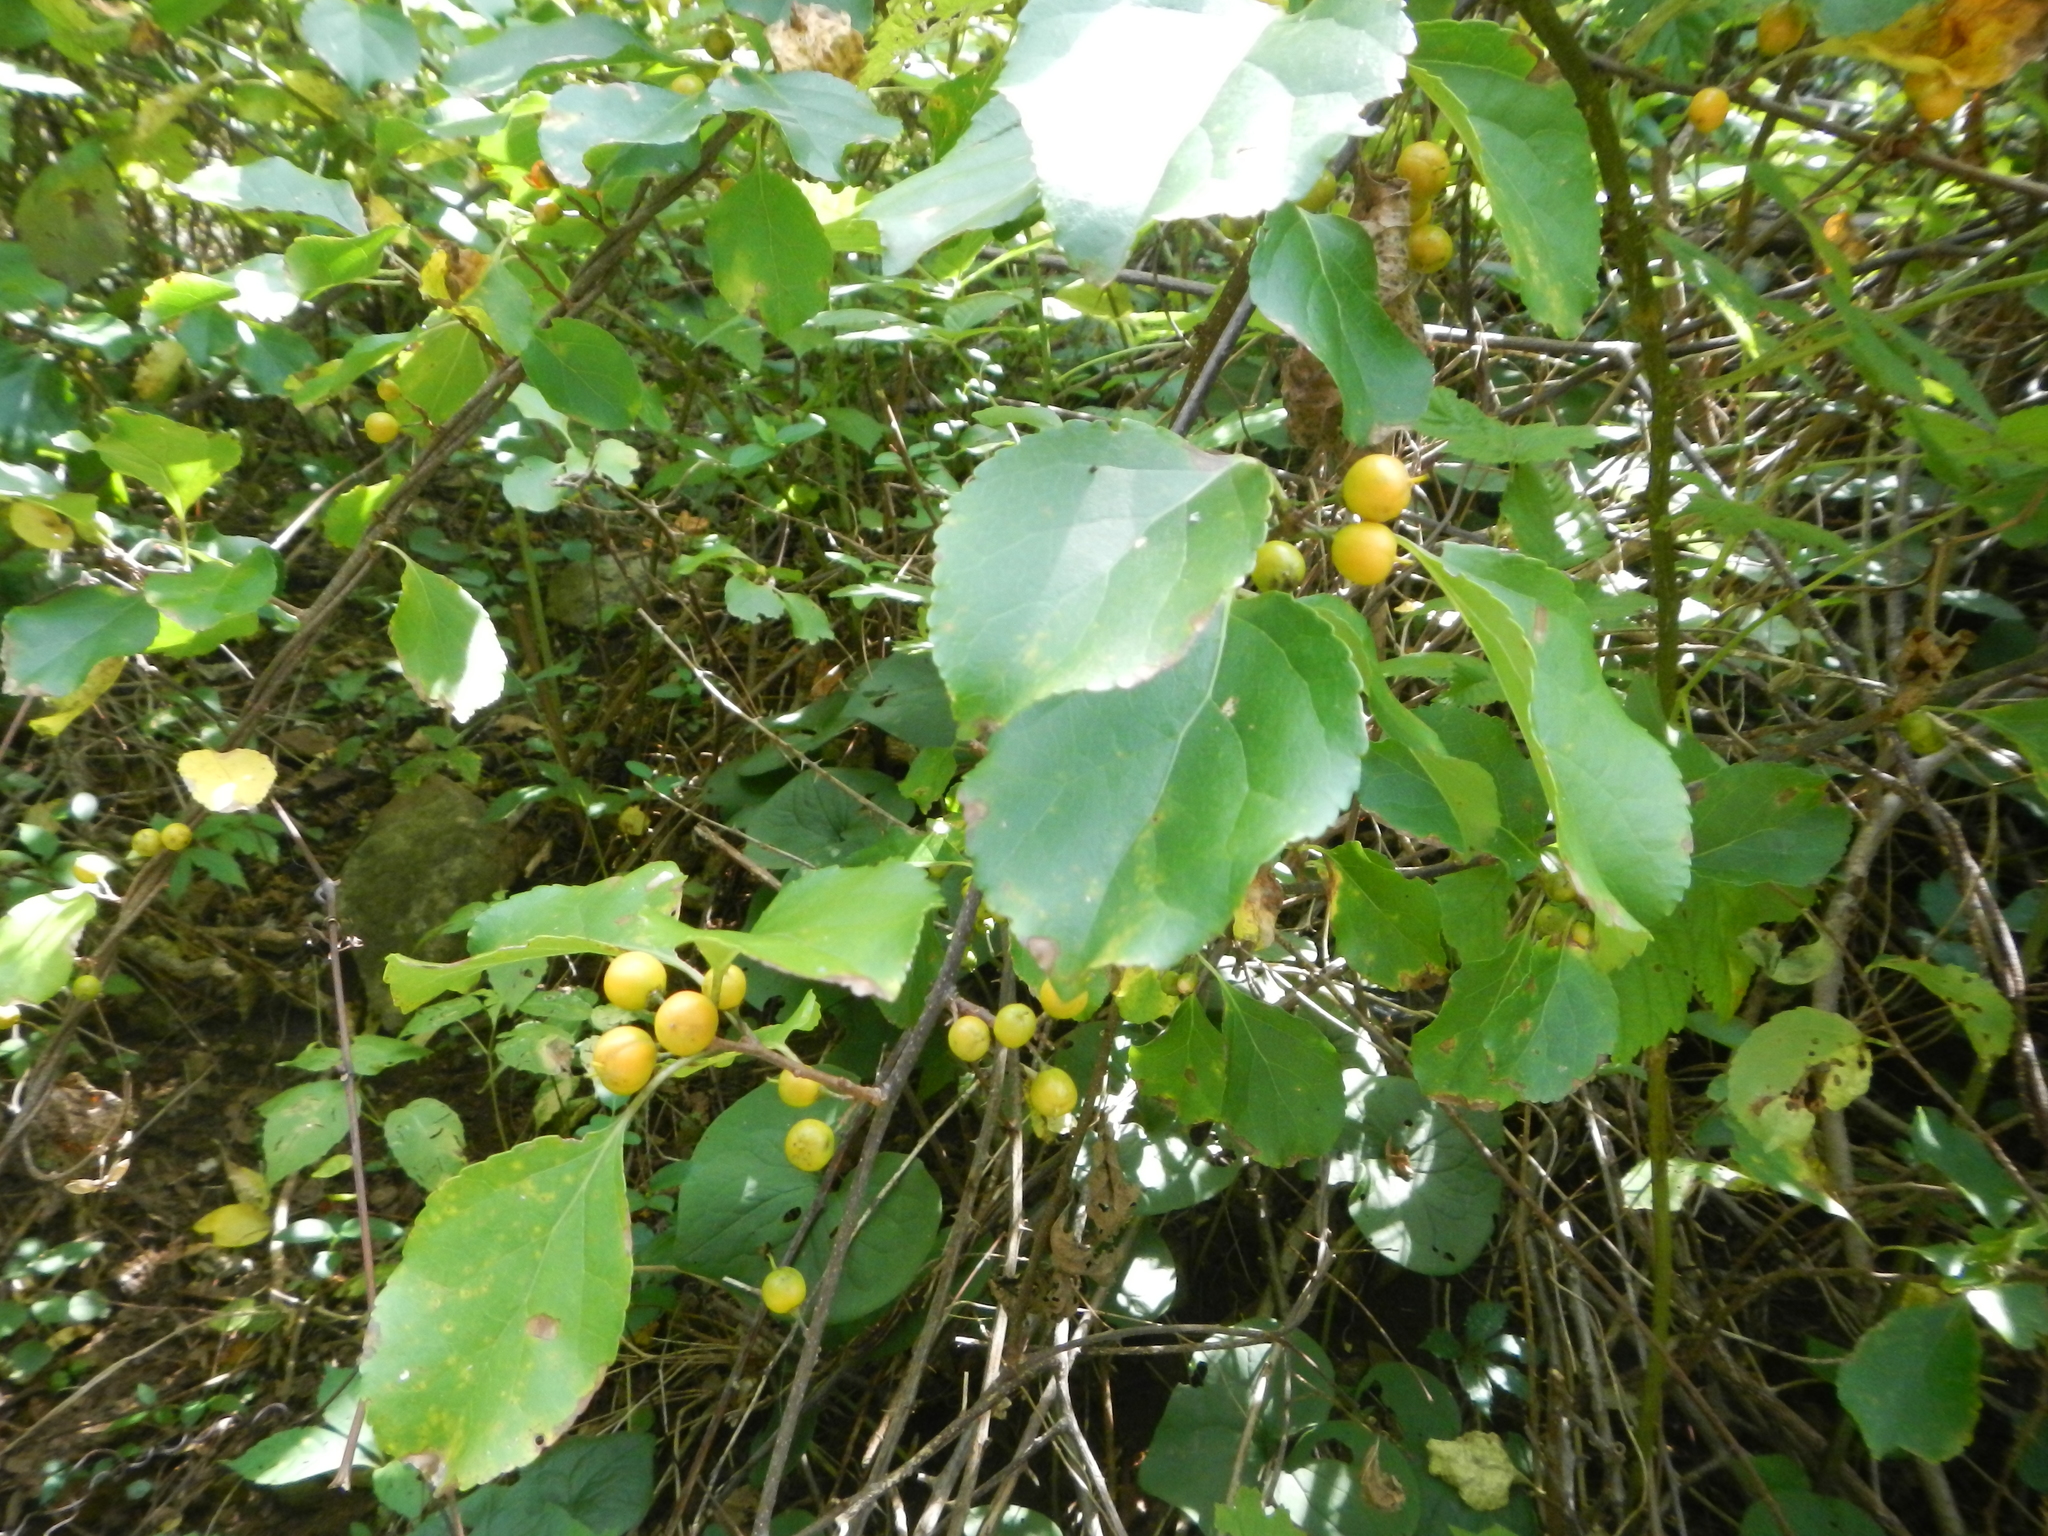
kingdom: Plantae
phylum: Tracheophyta
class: Magnoliopsida
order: Celastrales
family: Celastraceae
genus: Celastrus
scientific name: Celastrus orbiculatus
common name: Oriental bittersweet
